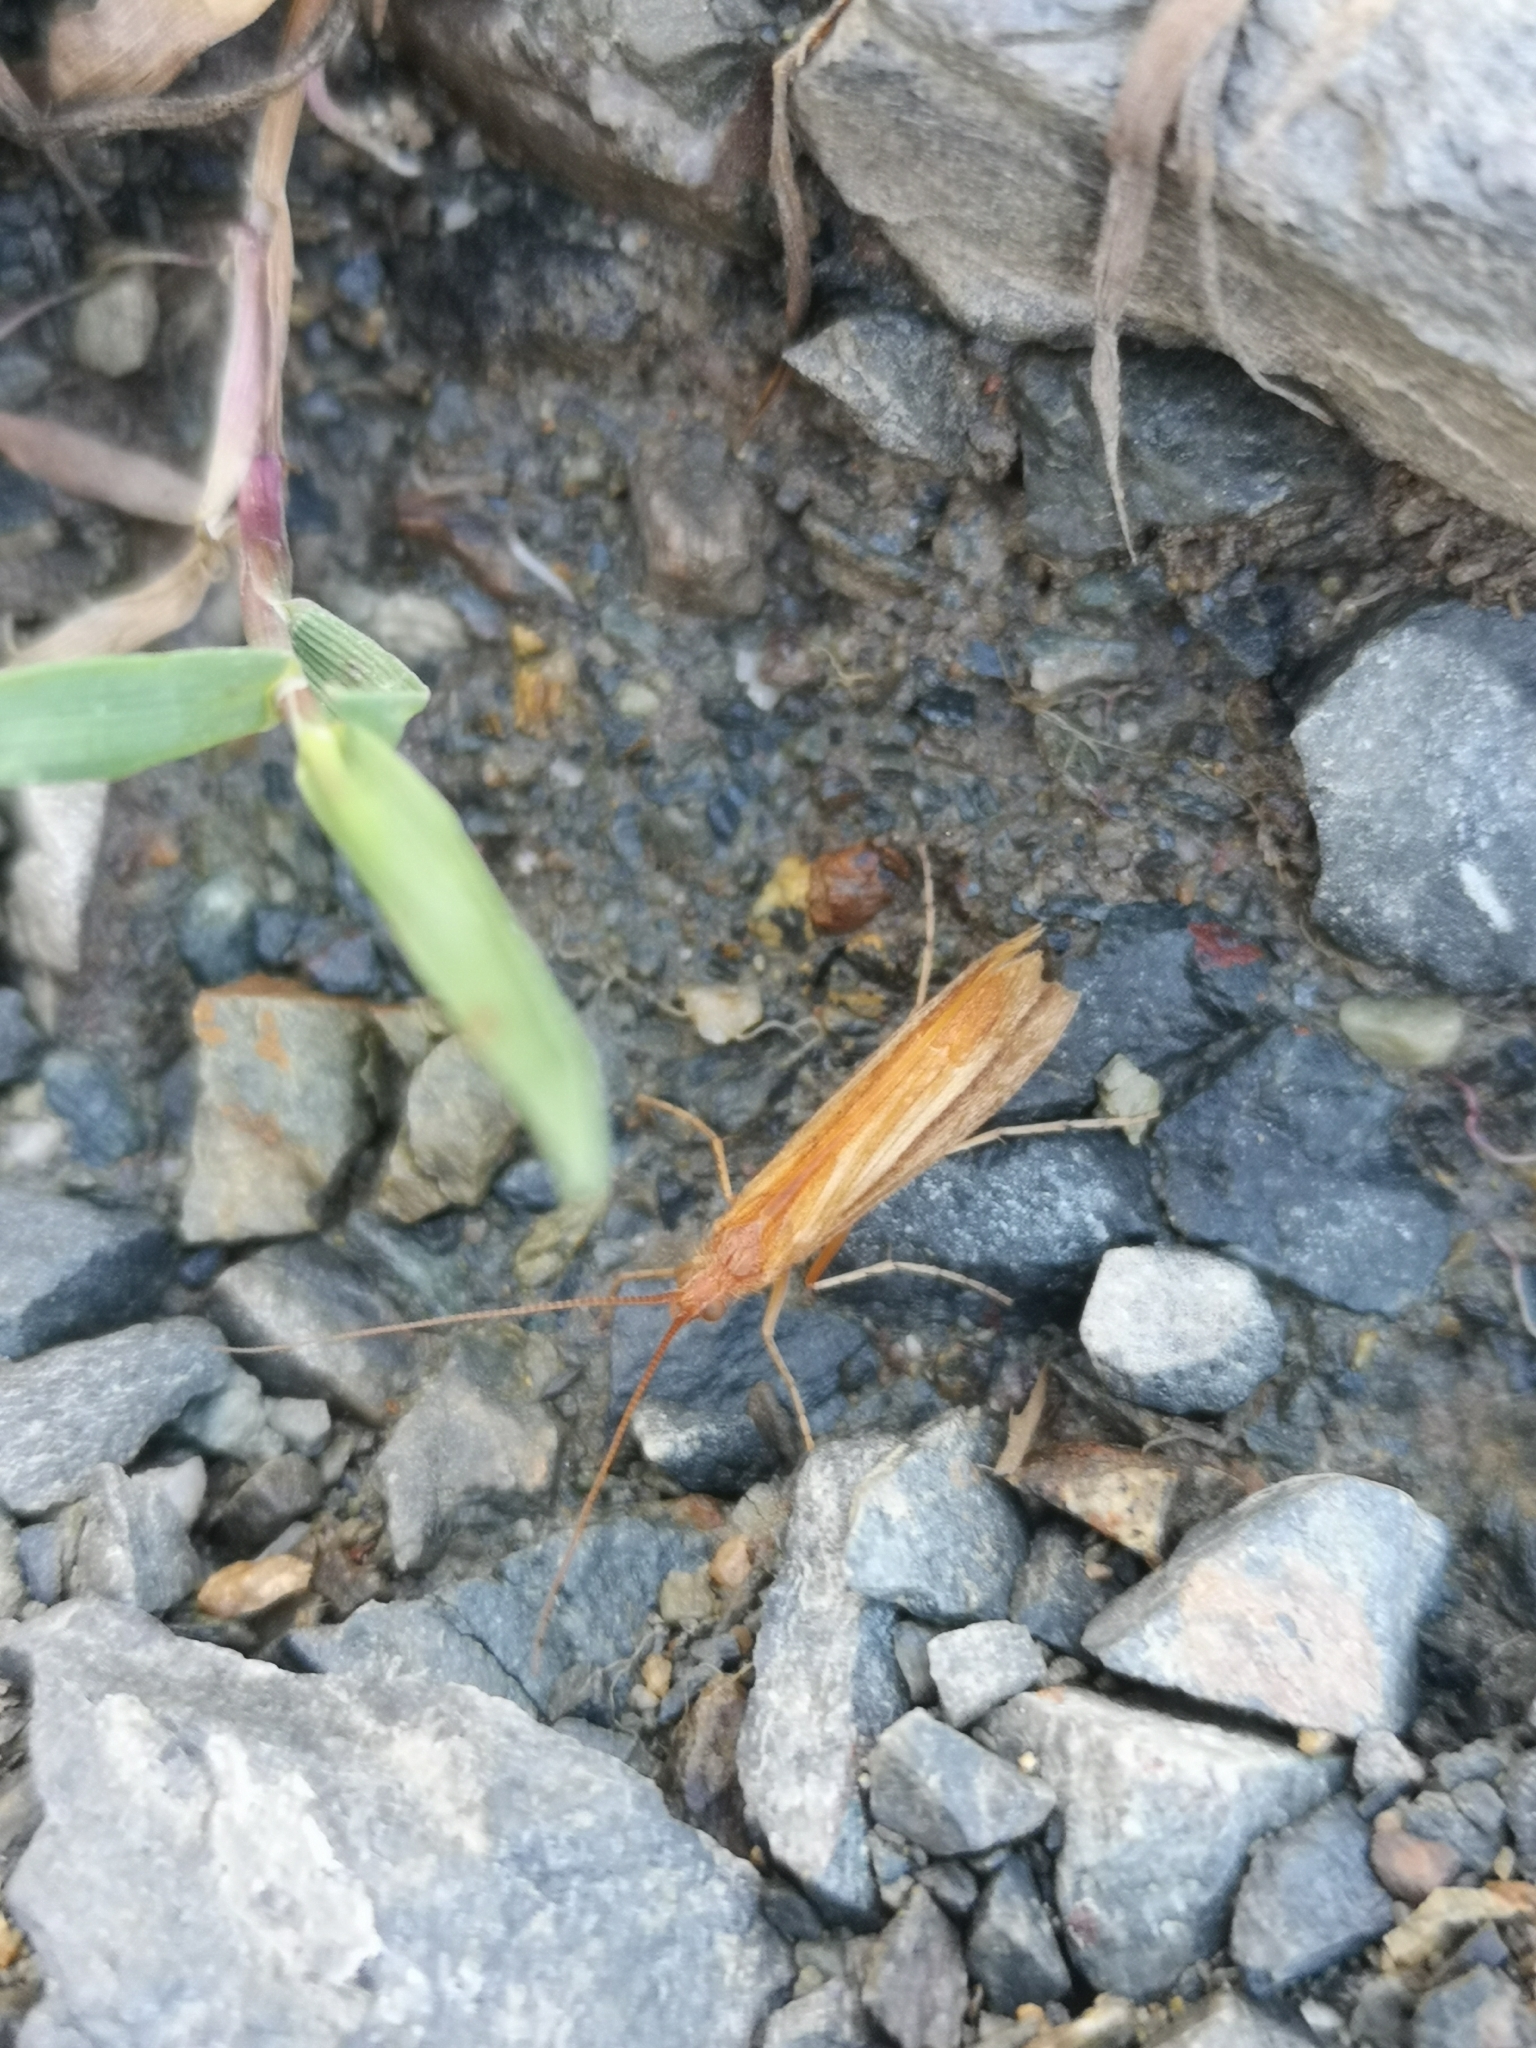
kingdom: Animalia
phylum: Arthropoda
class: Insecta
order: Trichoptera
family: Limnephilidae
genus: Limnephilus
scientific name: Limnephilus vittatus
